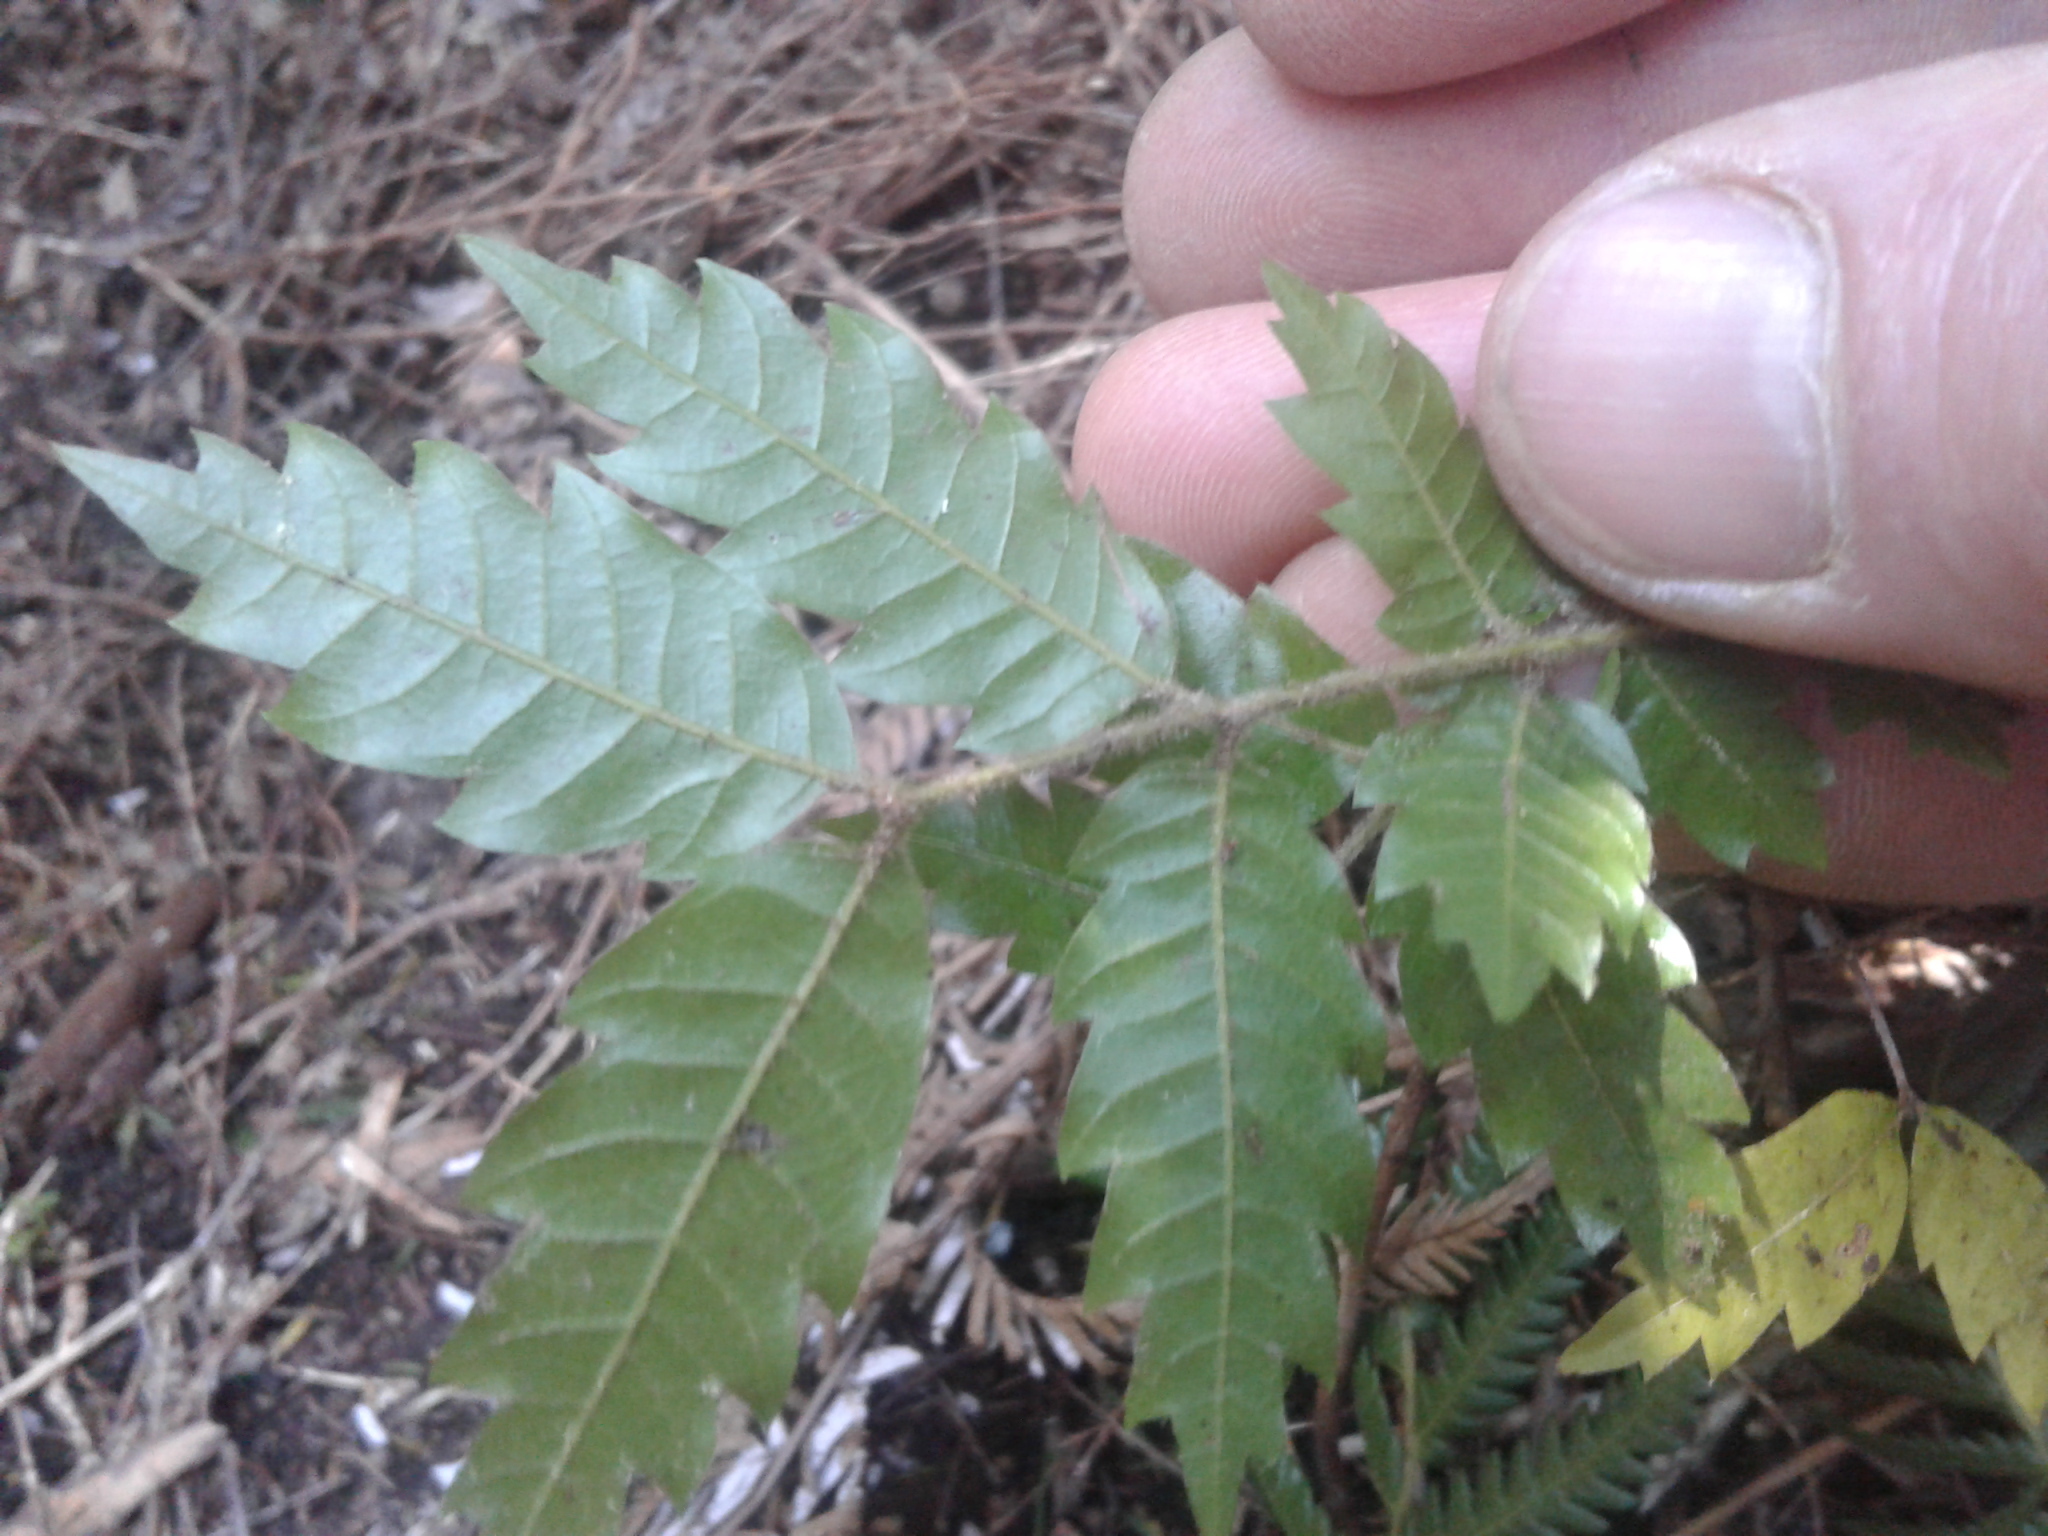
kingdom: Plantae
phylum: Tracheophyta
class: Magnoliopsida
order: Sapindales
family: Sapindaceae
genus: Alectryon
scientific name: Alectryon excelsus
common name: Three kings titoki
